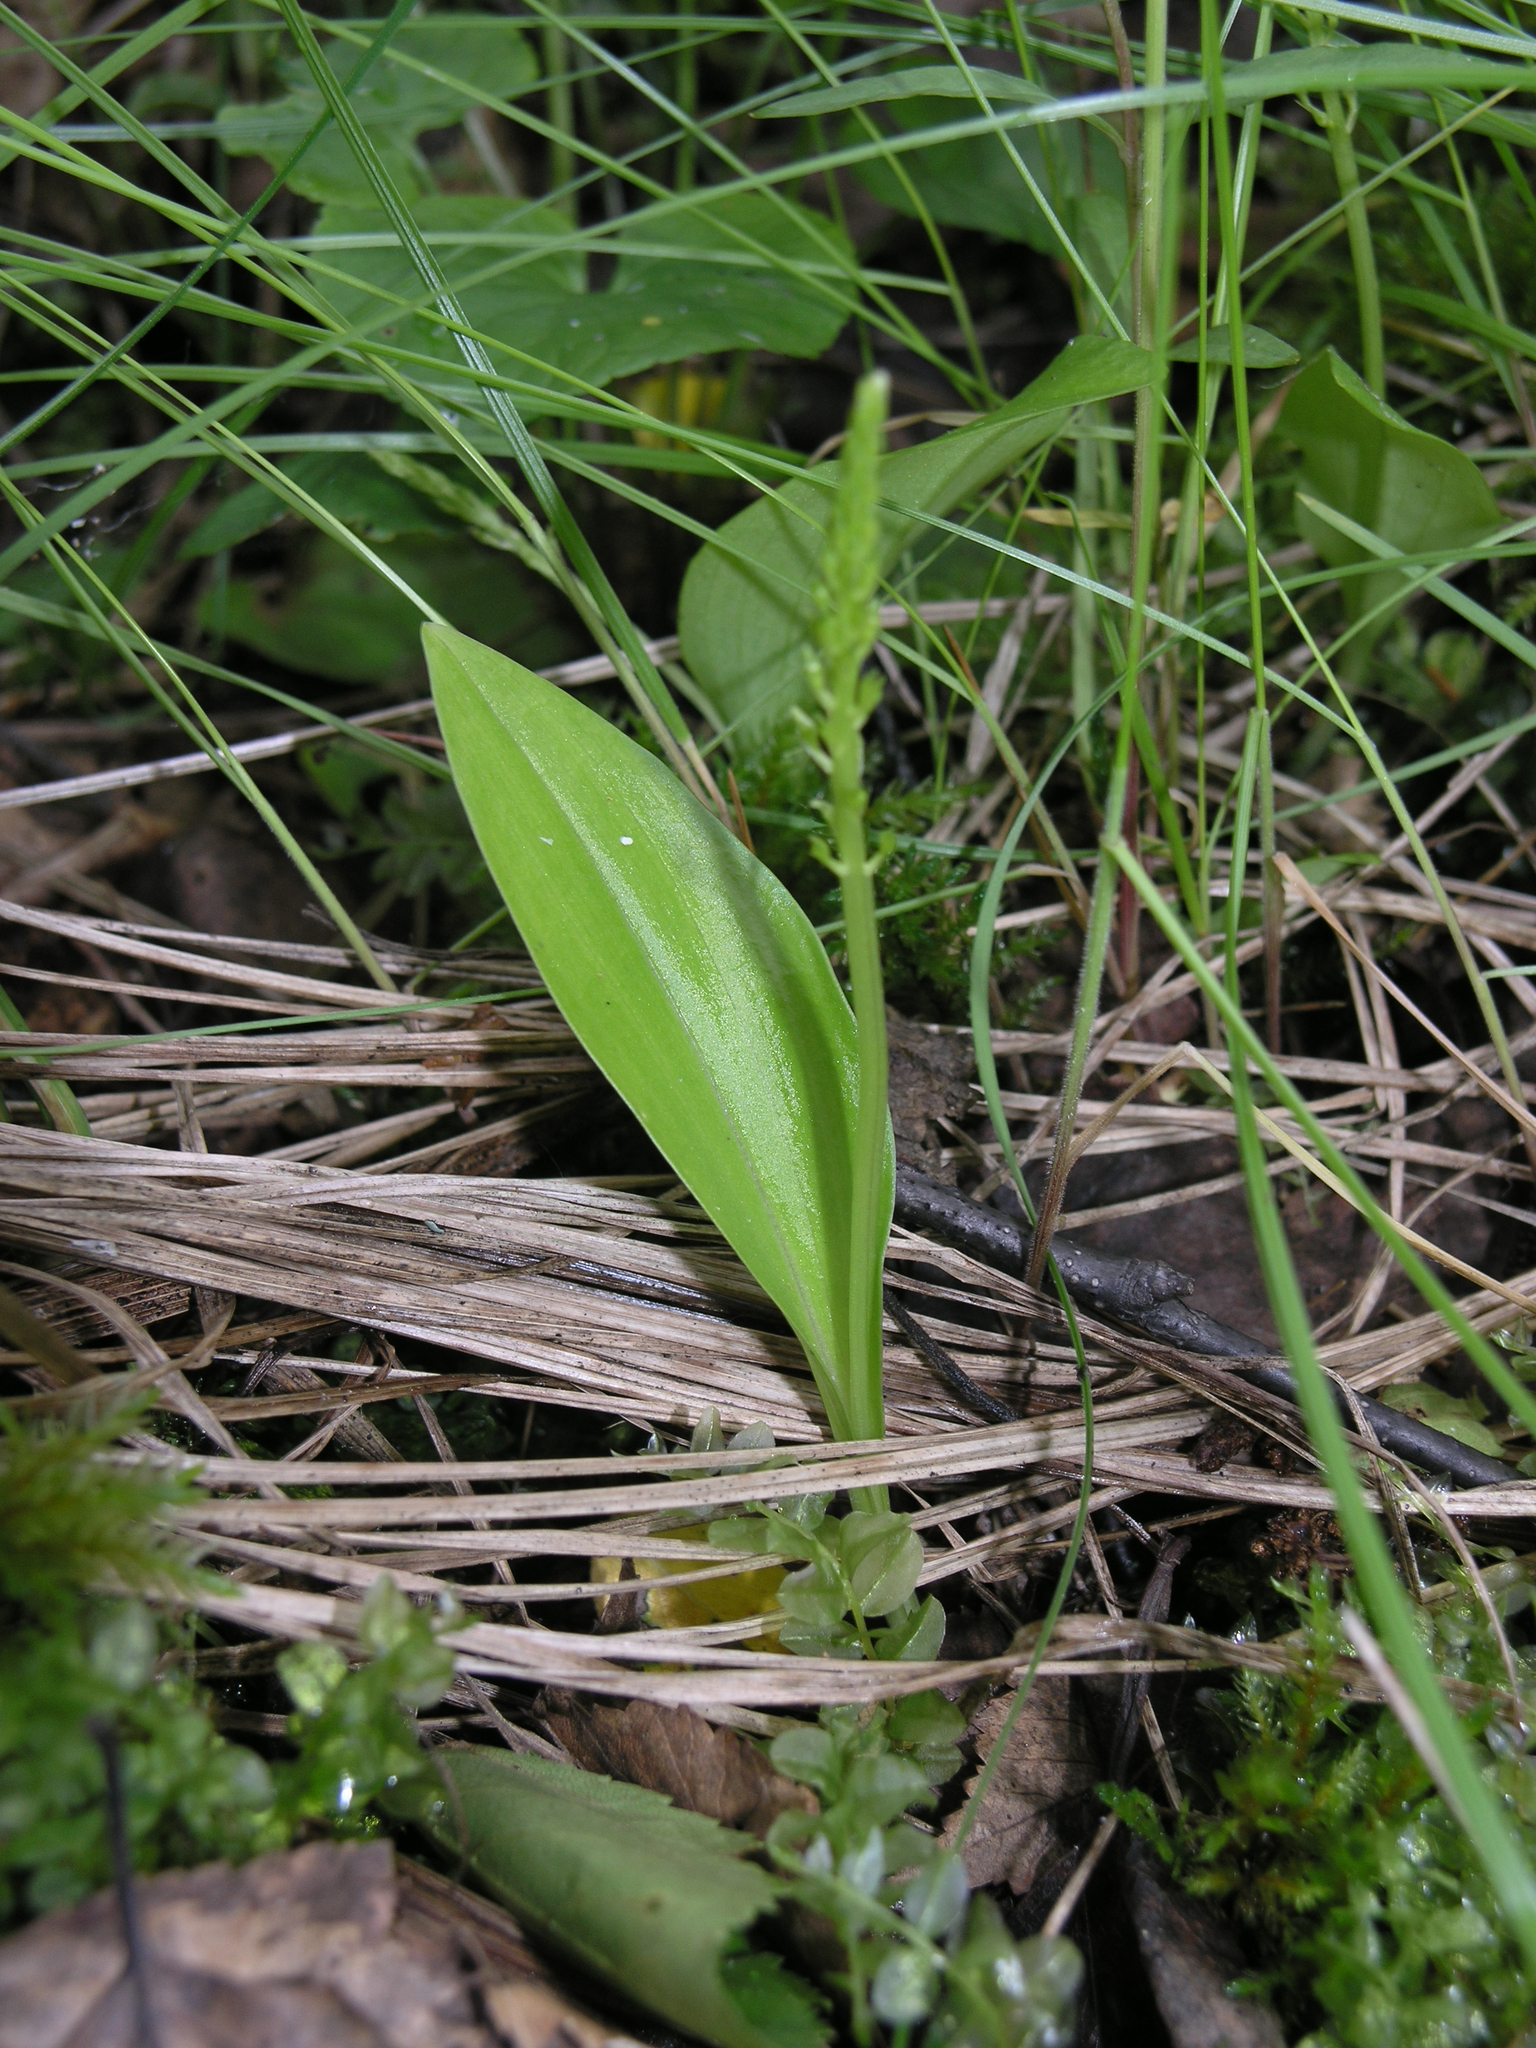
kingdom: Plantae
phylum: Tracheophyta
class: Liliopsida
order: Asparagales
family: Orchidaceae
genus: Malaxis
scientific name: Malaxis monophyllos
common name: White adder's-mouth
